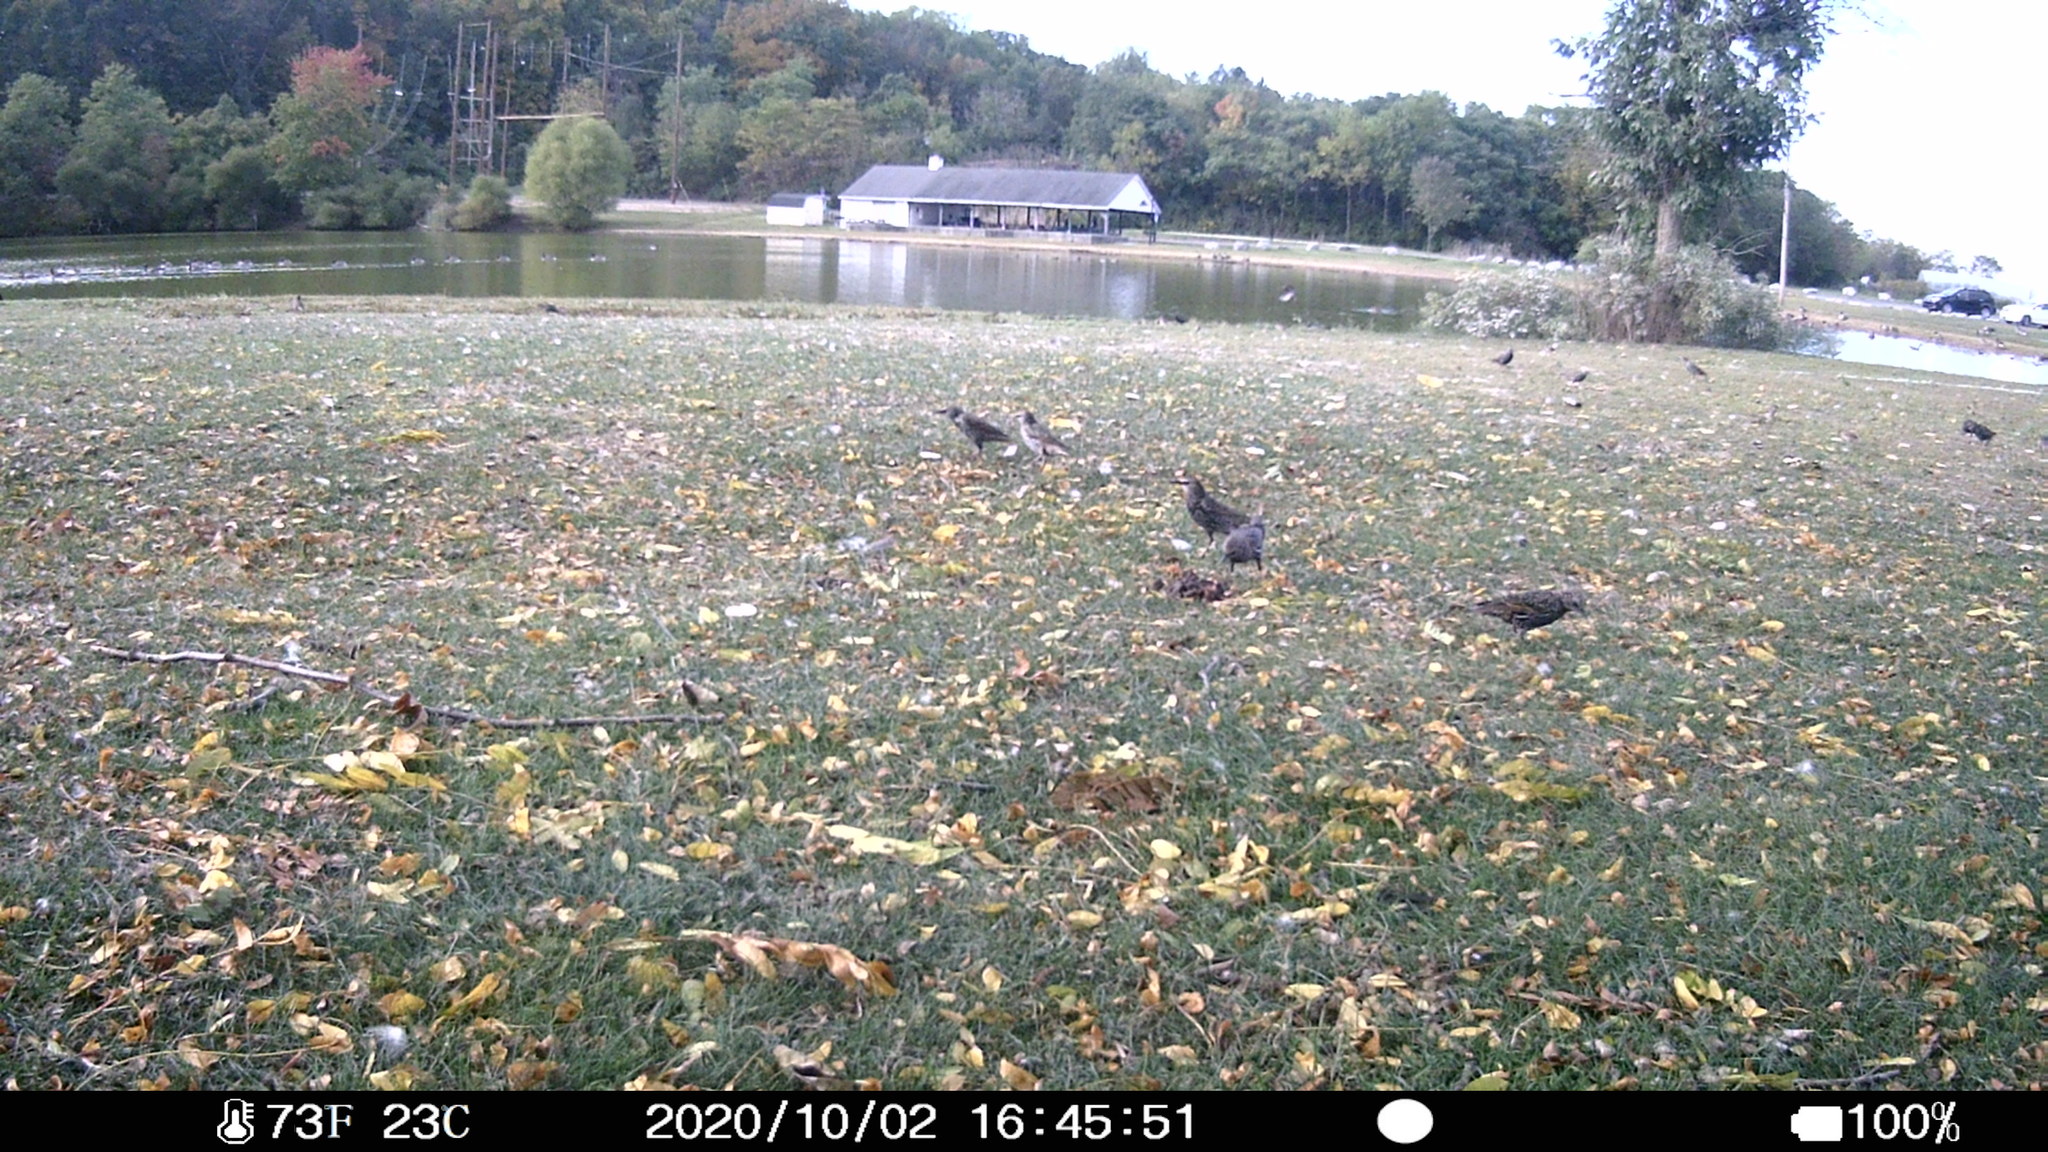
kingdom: Animalia
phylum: Chordata
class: Aves
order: Passeriformes
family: Sturnidae
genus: Sturnus
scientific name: Sturnus vulgaris
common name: Common starling
